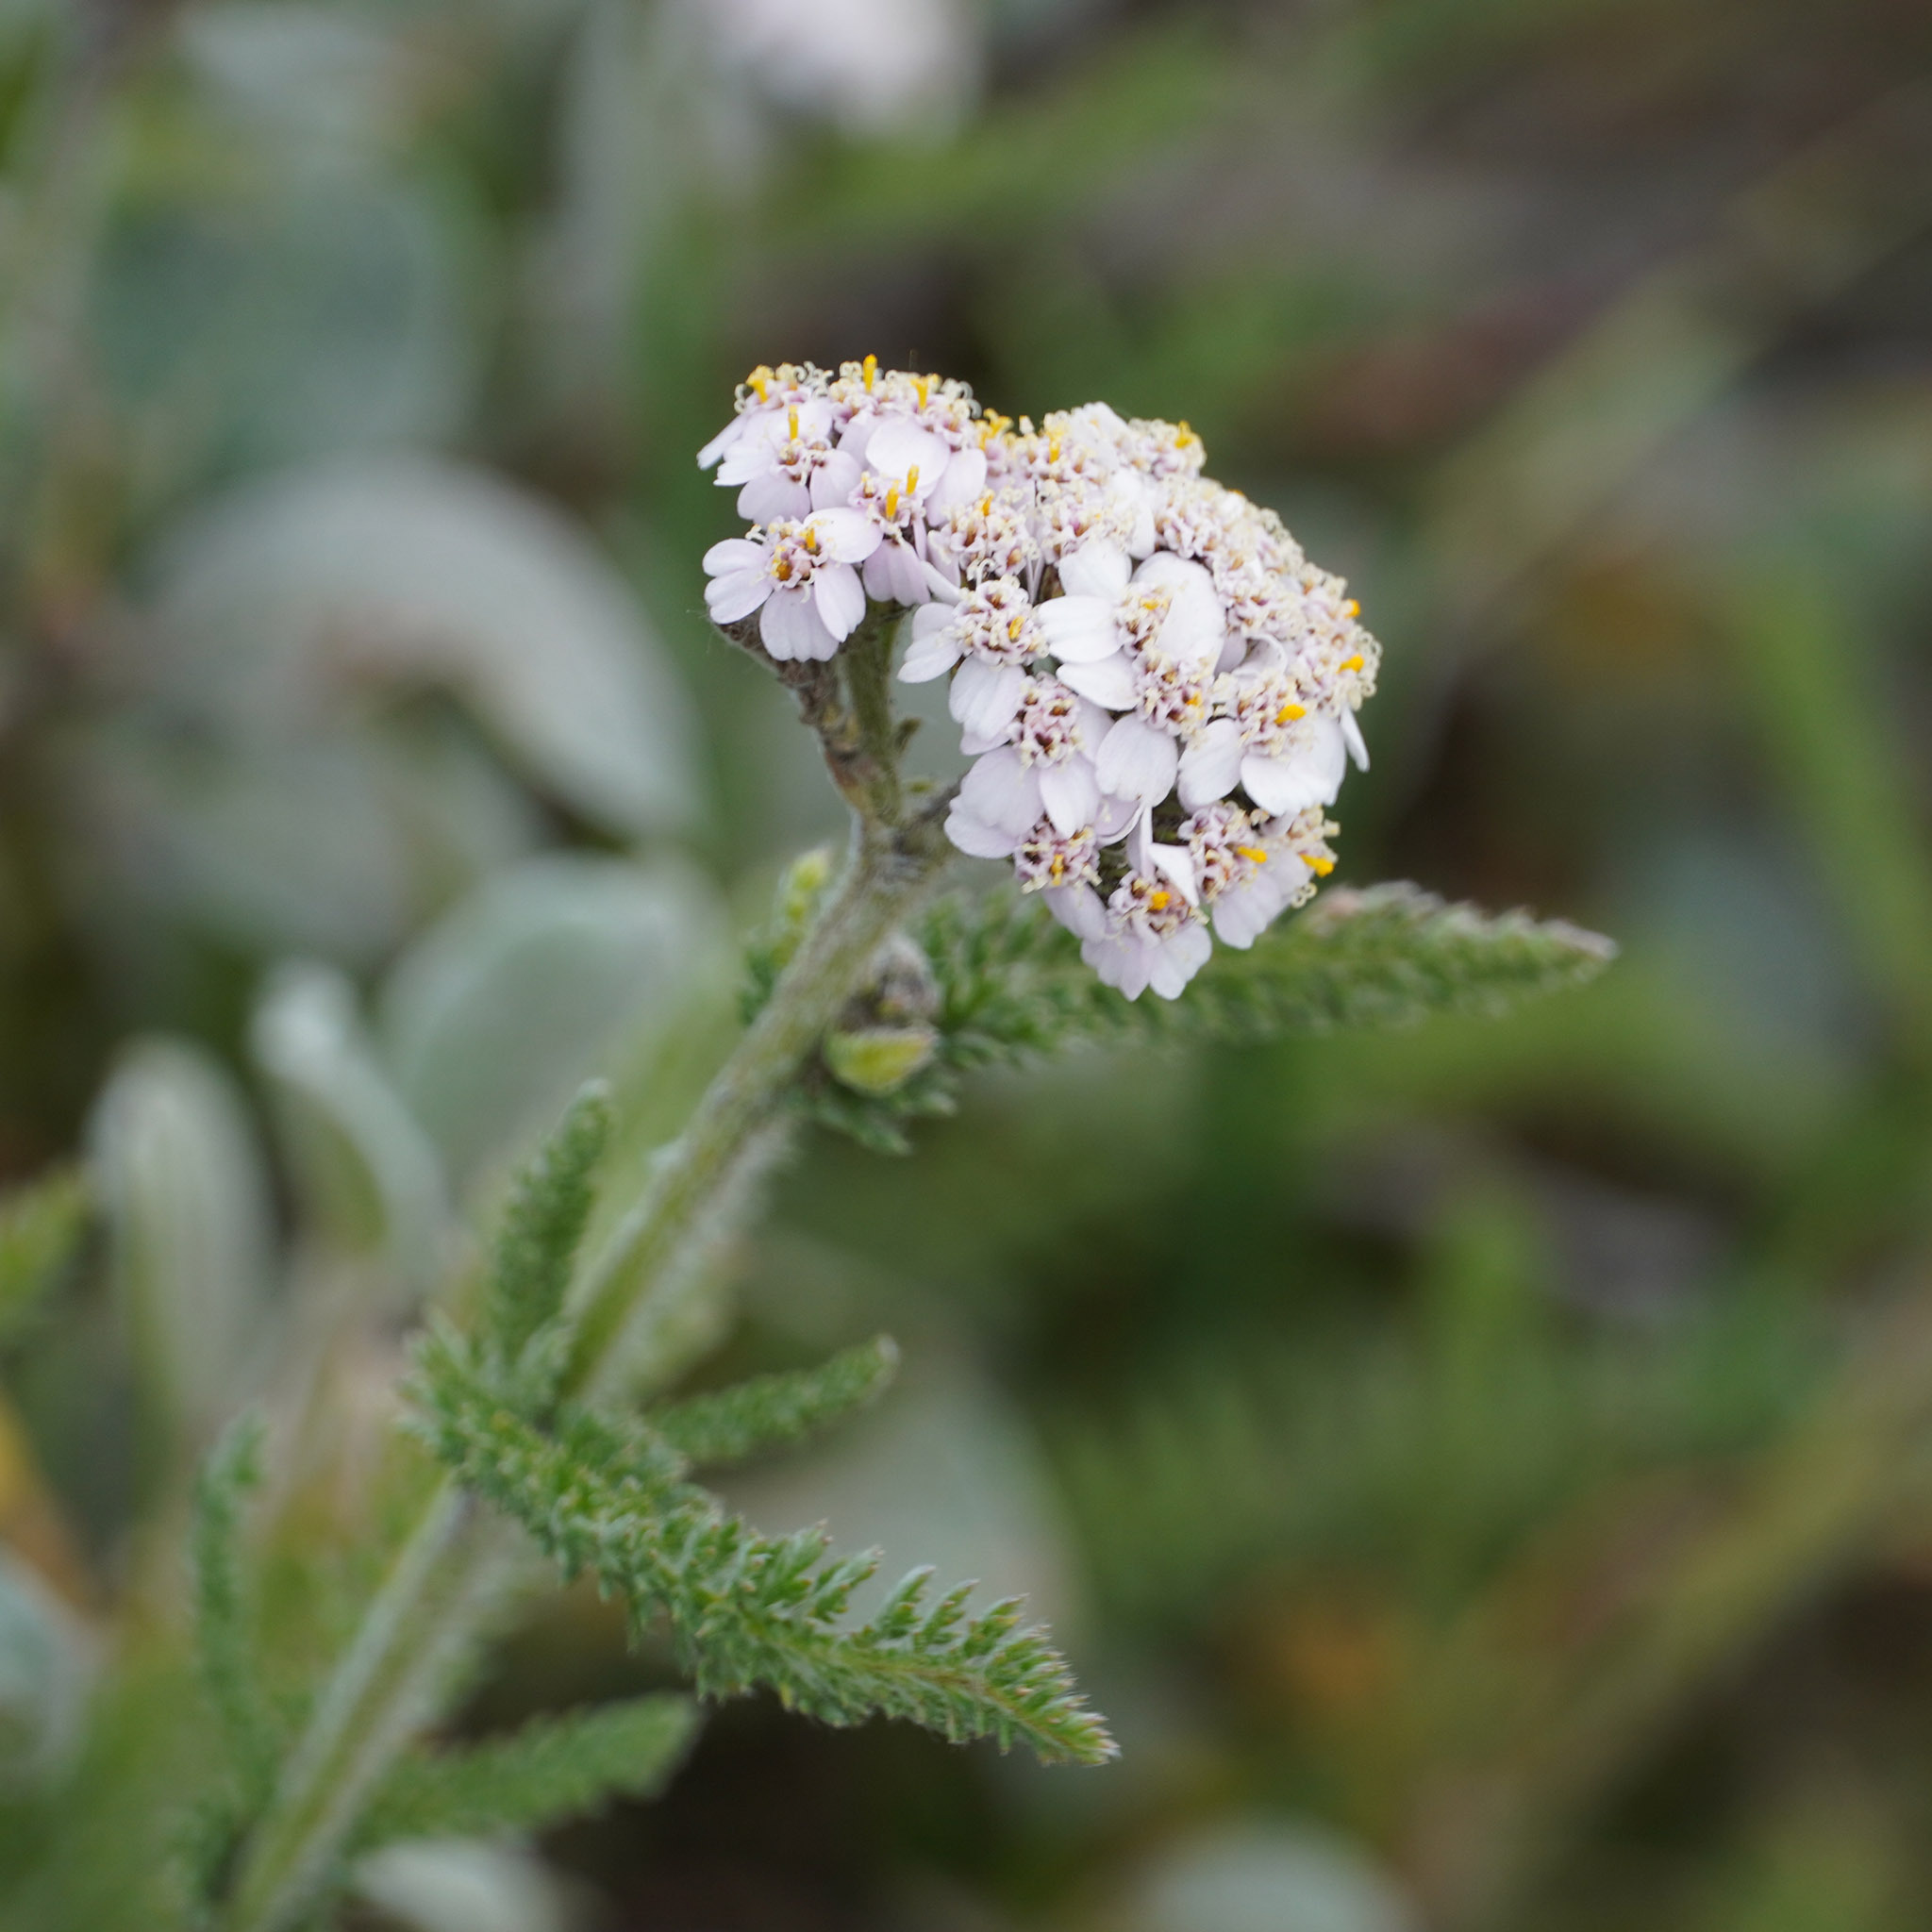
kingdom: Plantae
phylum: Tracheophyta
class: Magnoliopsida
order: Asterales
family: Asteraceae
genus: Achillea
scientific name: Achillea millefolium
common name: Yarrow
